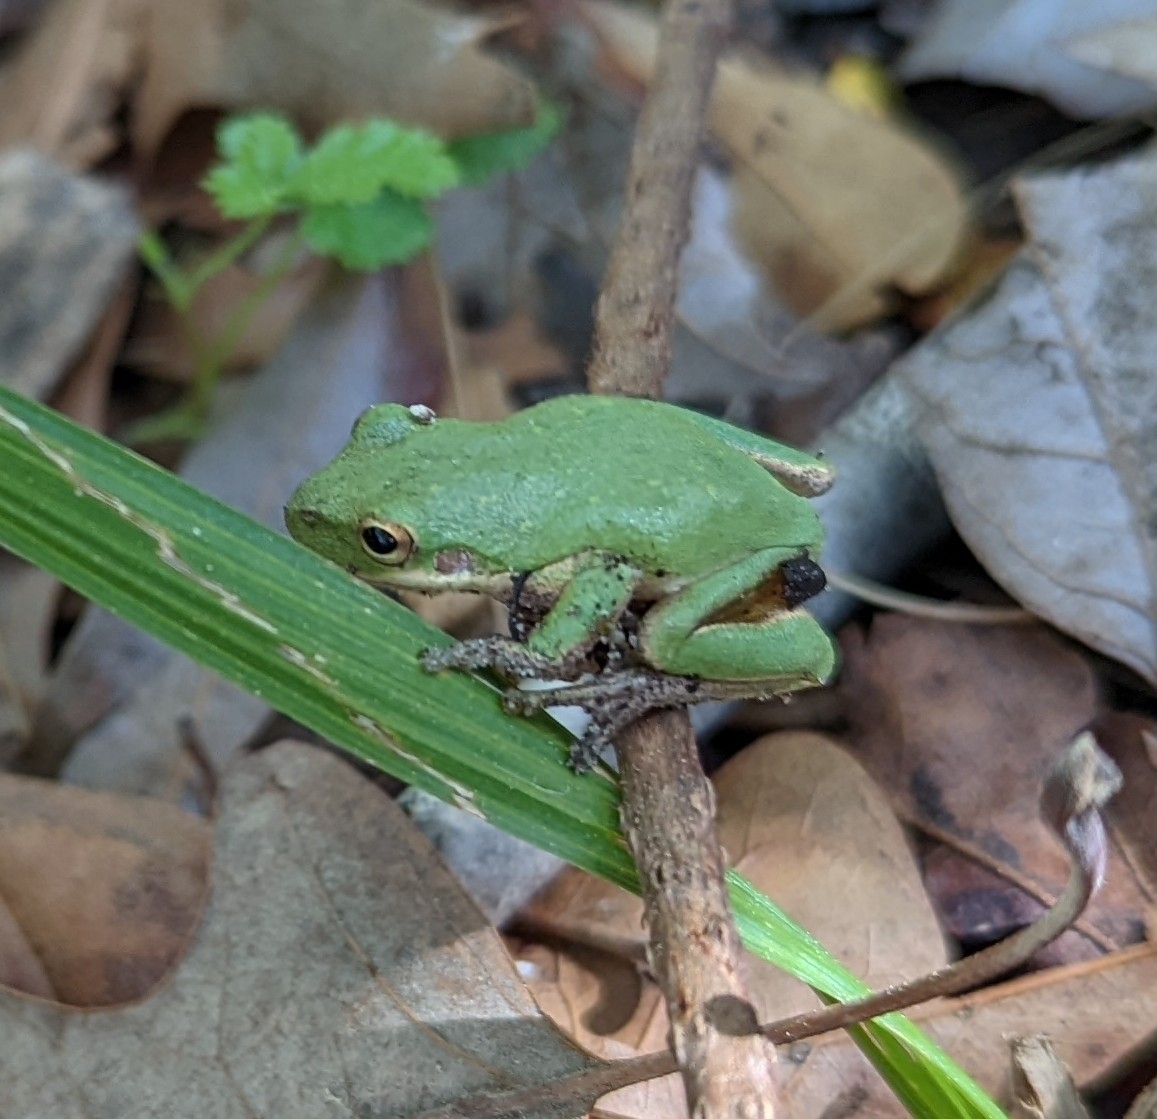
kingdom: Animalia
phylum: Chordata
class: Amphibia
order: Anura
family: Hylidae
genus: Dryophytes
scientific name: Dryophytes squirellus
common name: Squirrel treefrog
